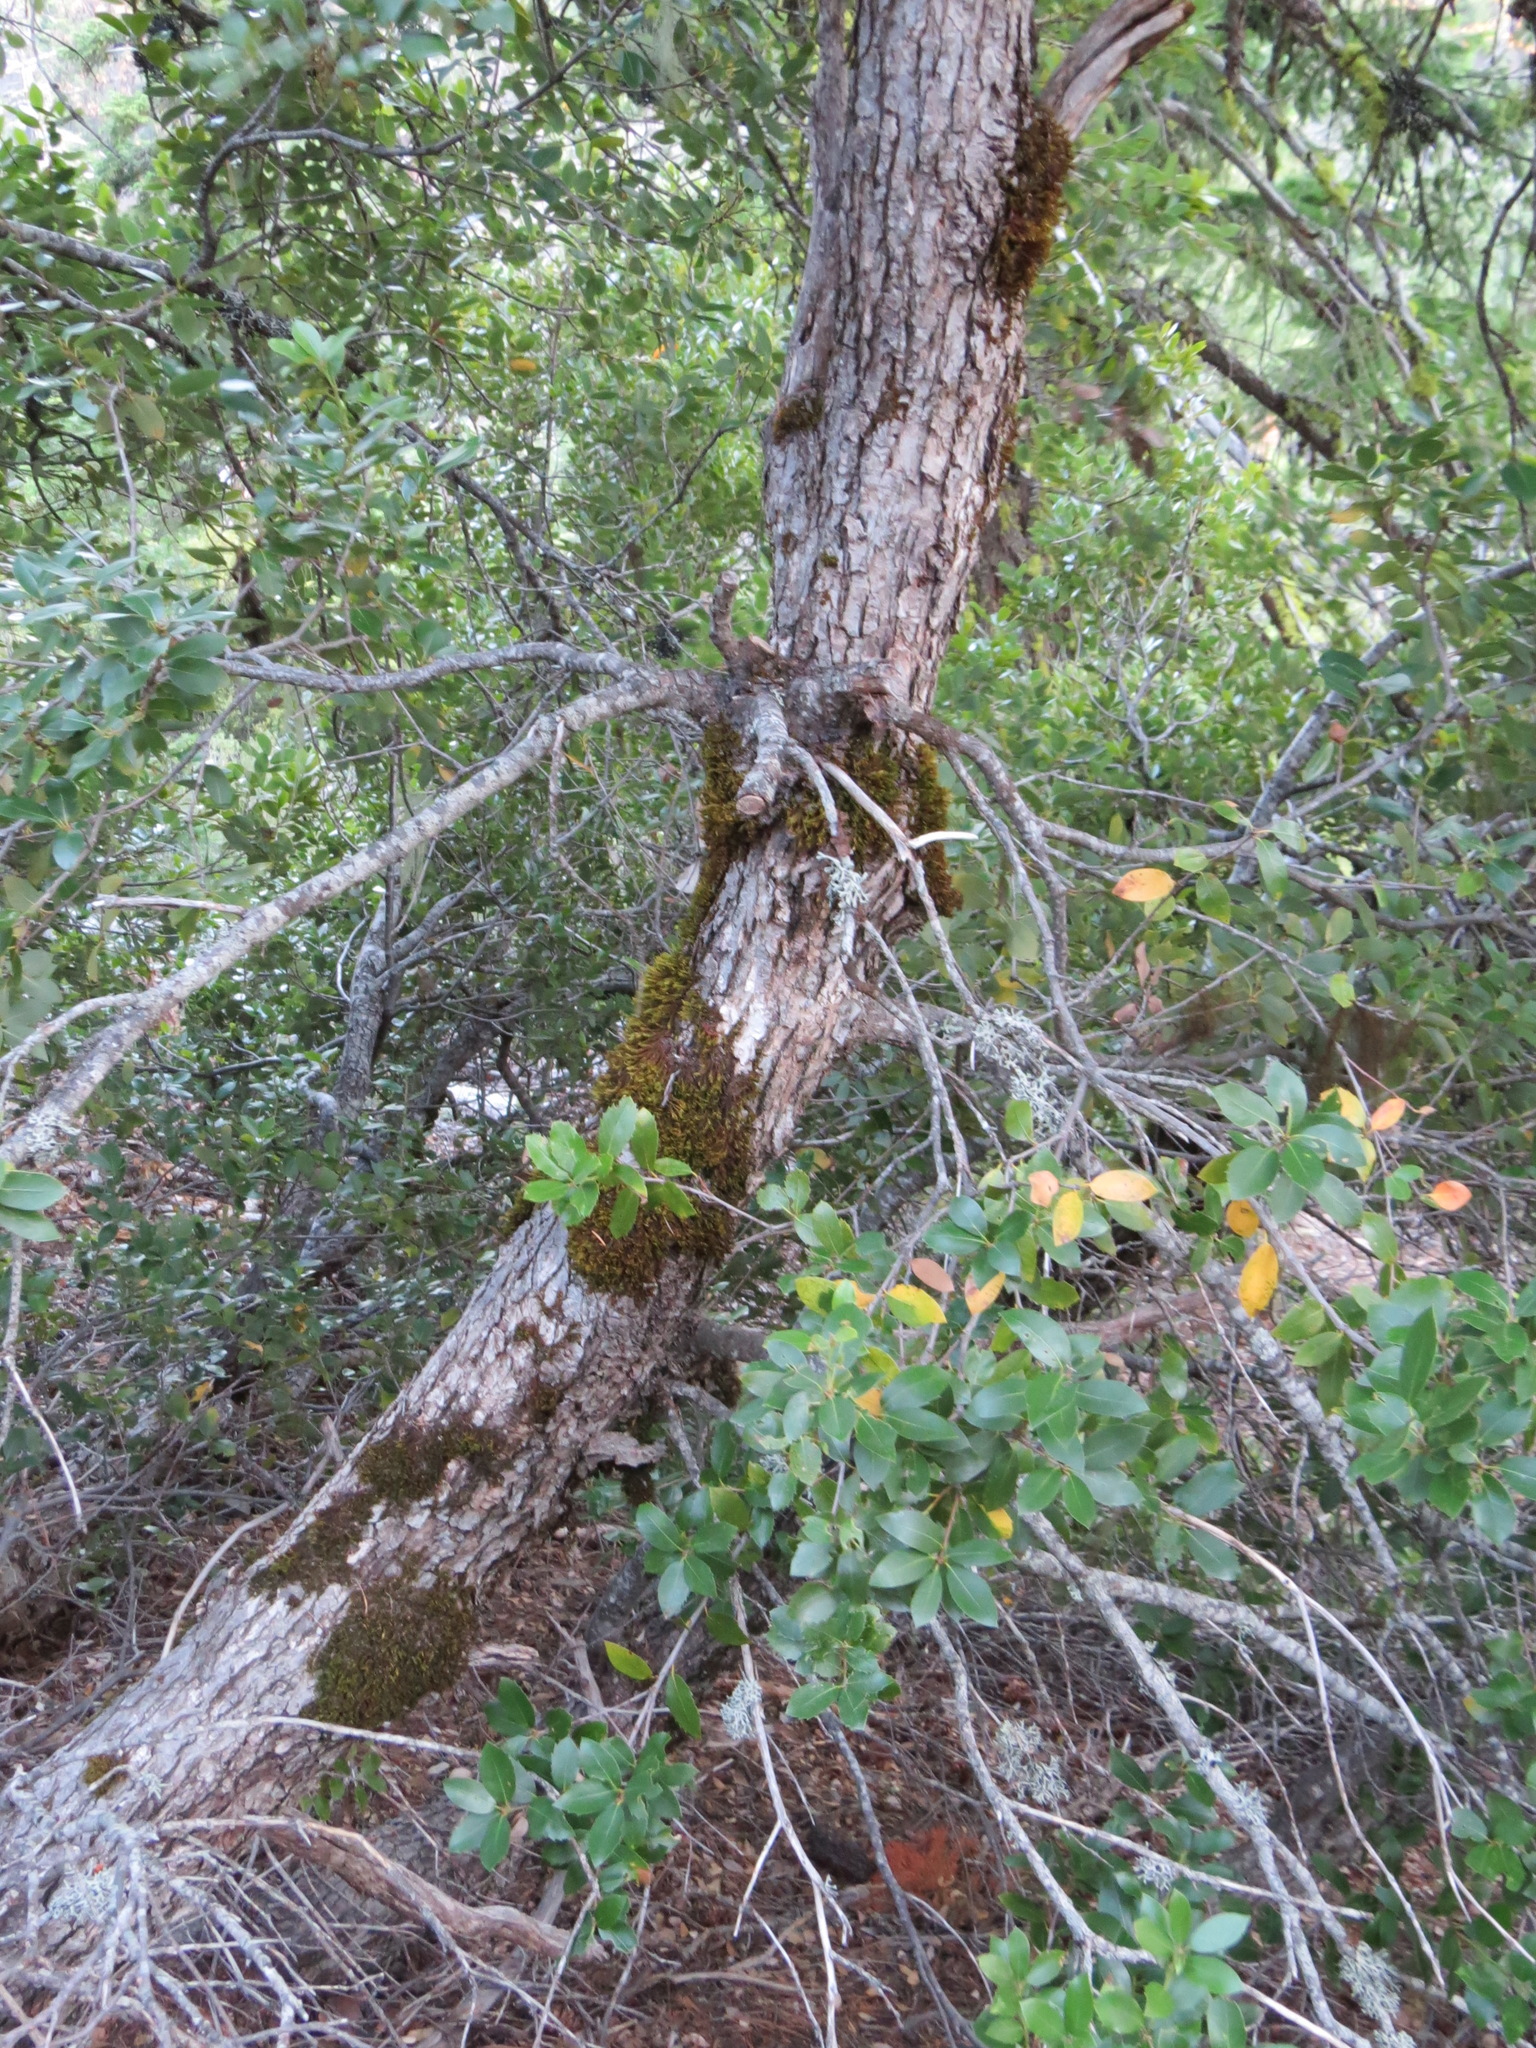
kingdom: Plantae
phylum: Tracheophyta
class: Magnoliopsida
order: Fagales
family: Fagaceae
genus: Quercus
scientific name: Quercus chrysolepis
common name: Canyon live oak
